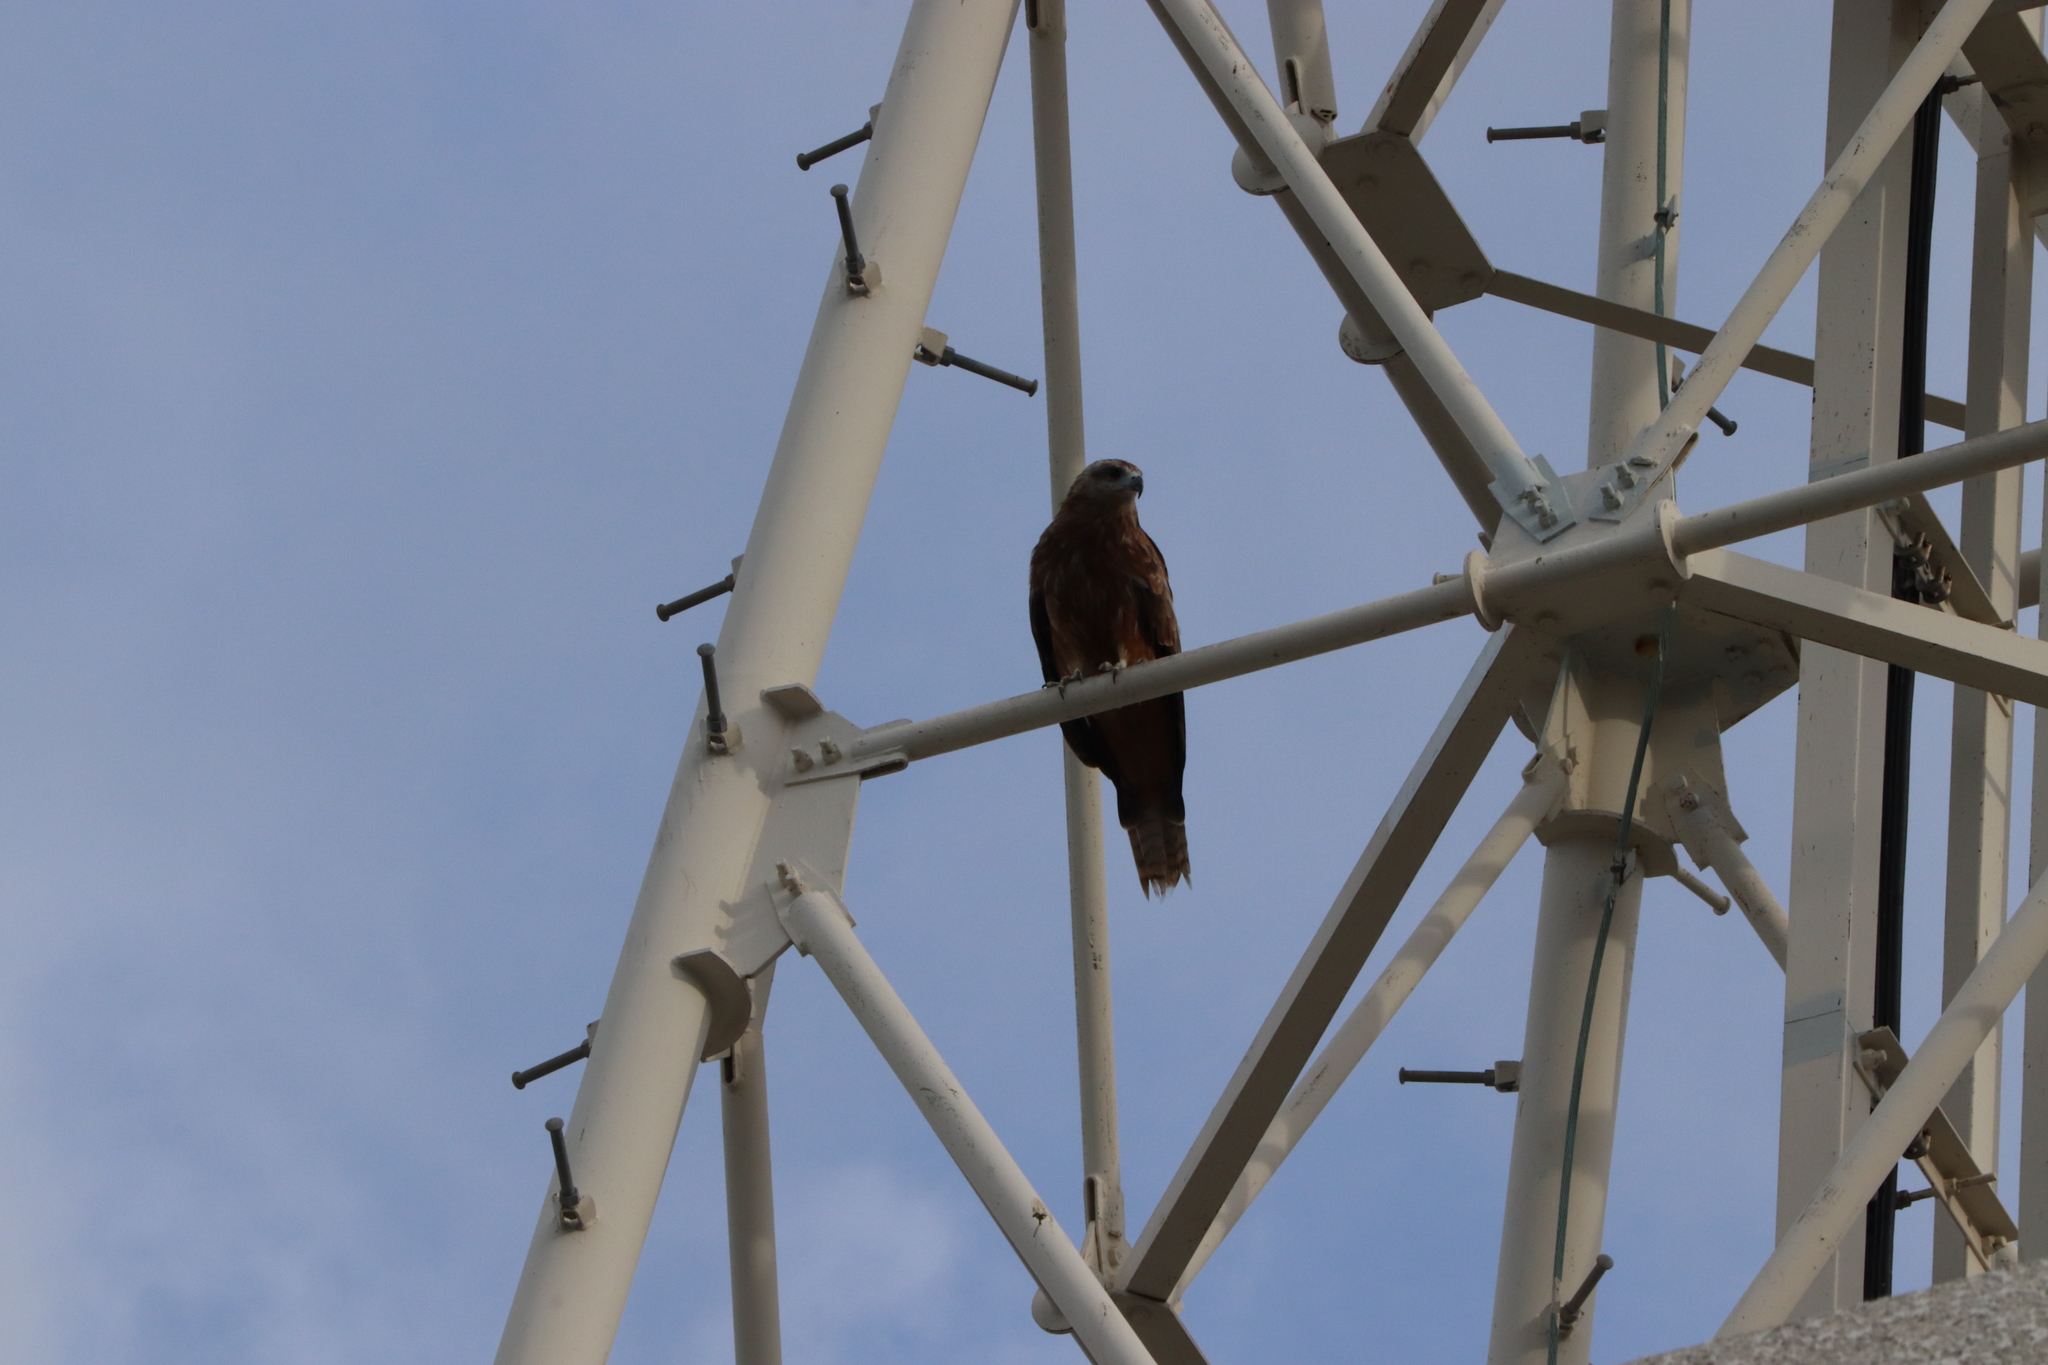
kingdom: Animalia
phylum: Chordata
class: Aves
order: Accipitriformes
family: Accipitridae
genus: Milvus
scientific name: Milvus migrans
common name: Black kite
